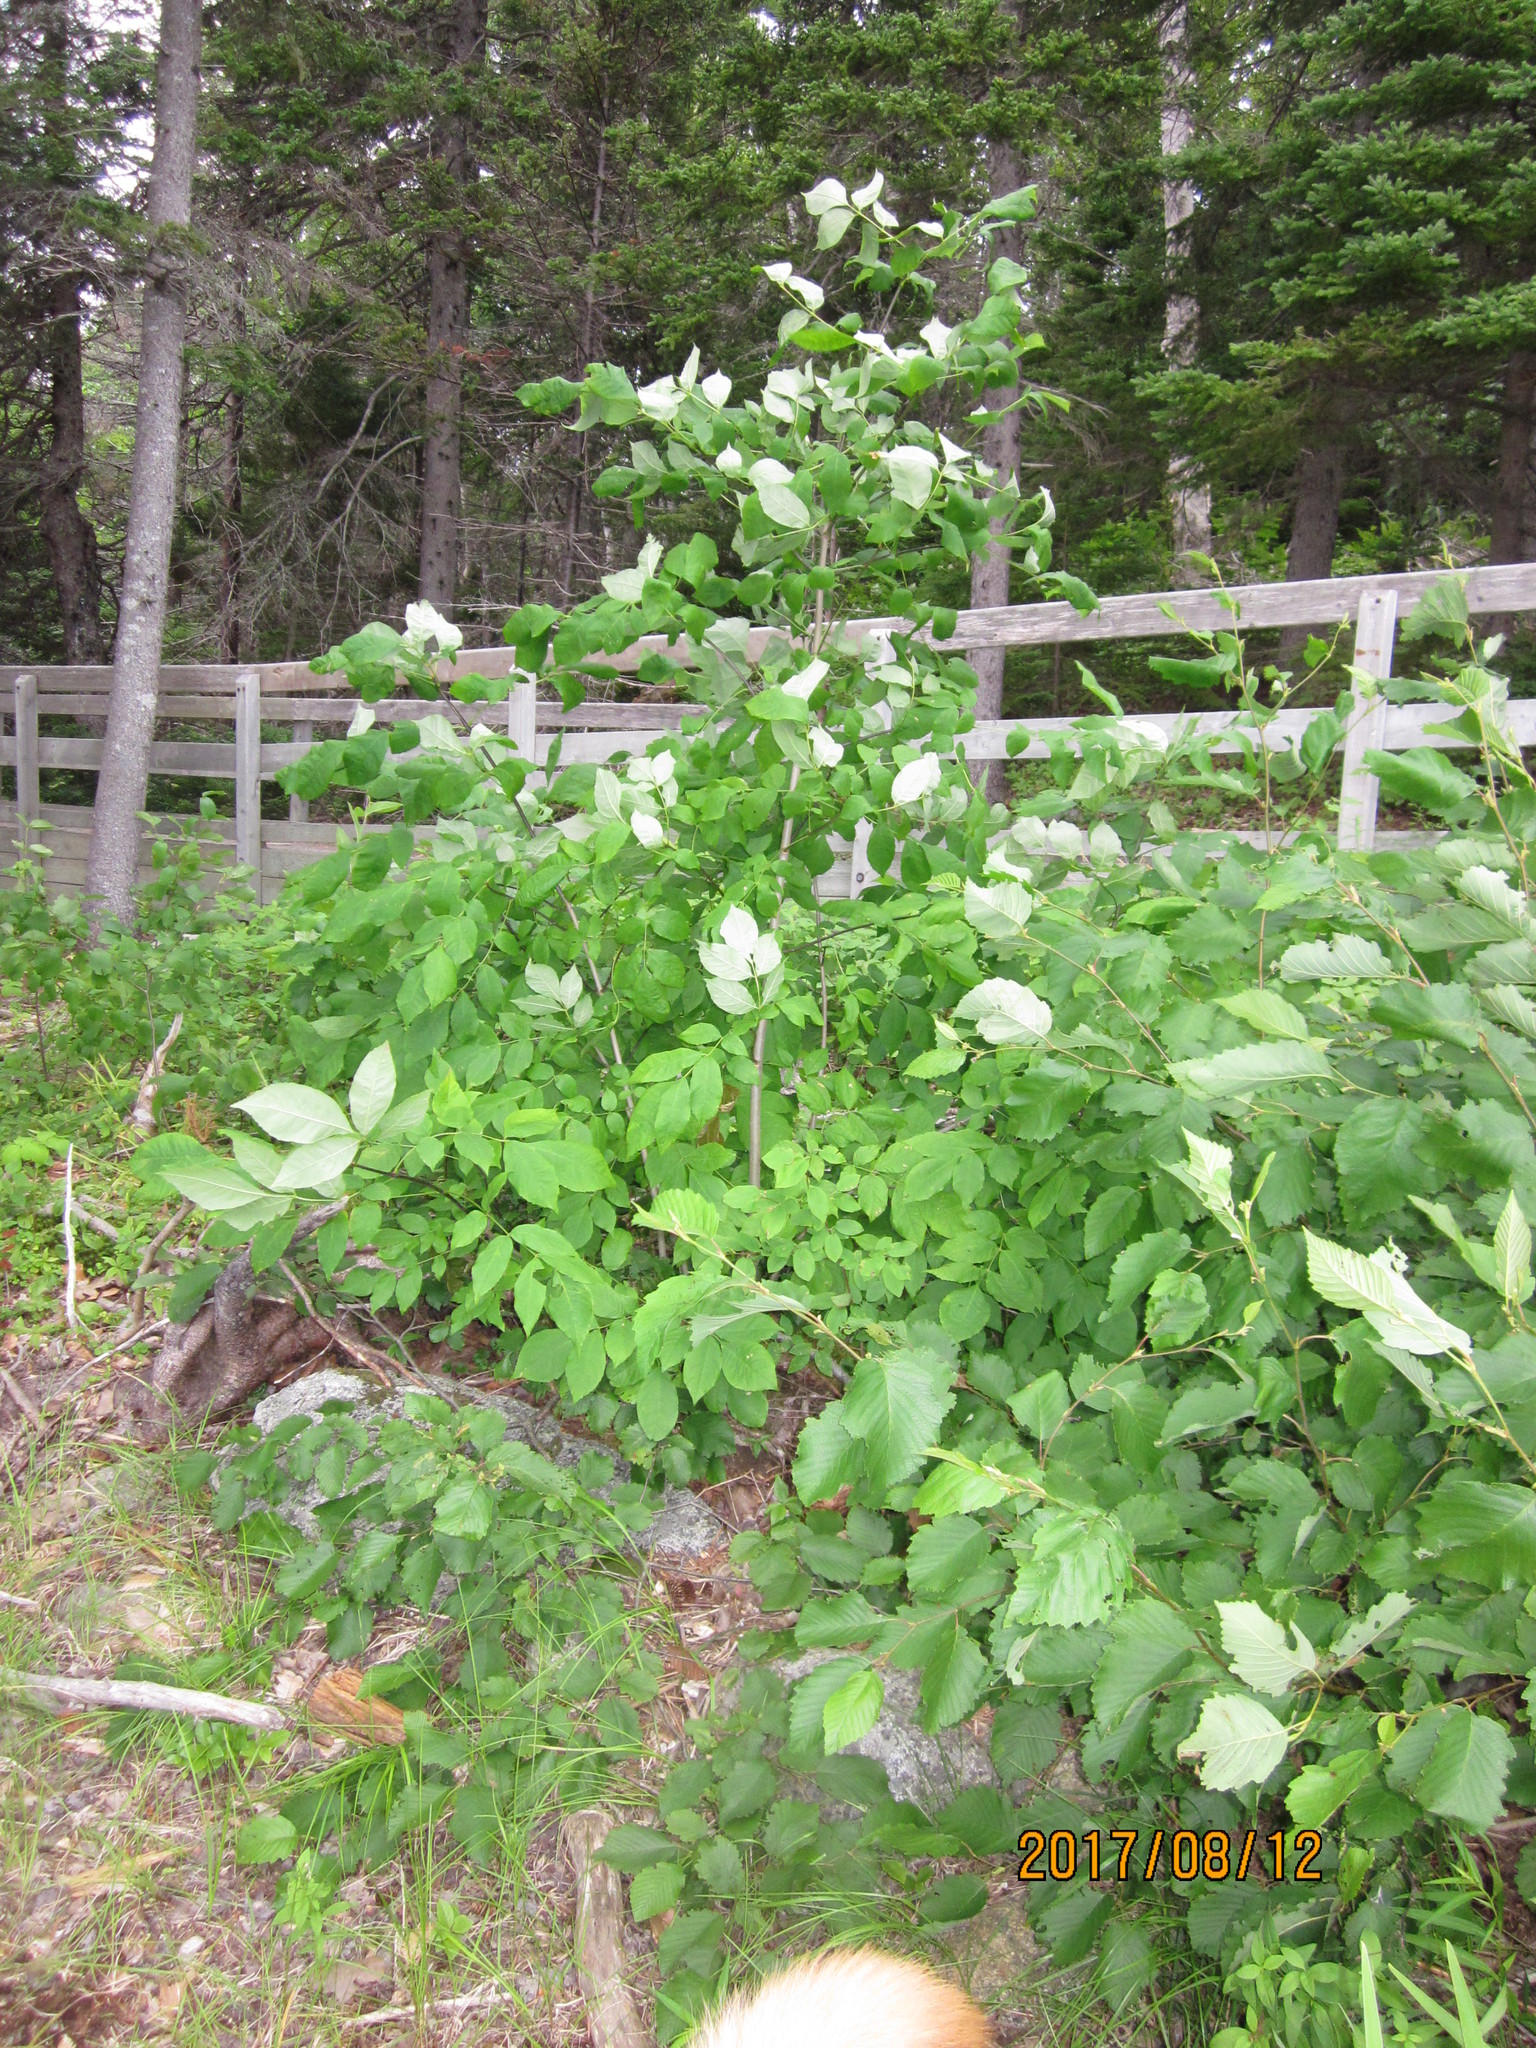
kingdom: Plantae
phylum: Tracheophyta
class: Magnoliopsida
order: Lamiales
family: Oleaceae
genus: Fraxinus
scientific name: Fraxinus americana
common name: White ash
